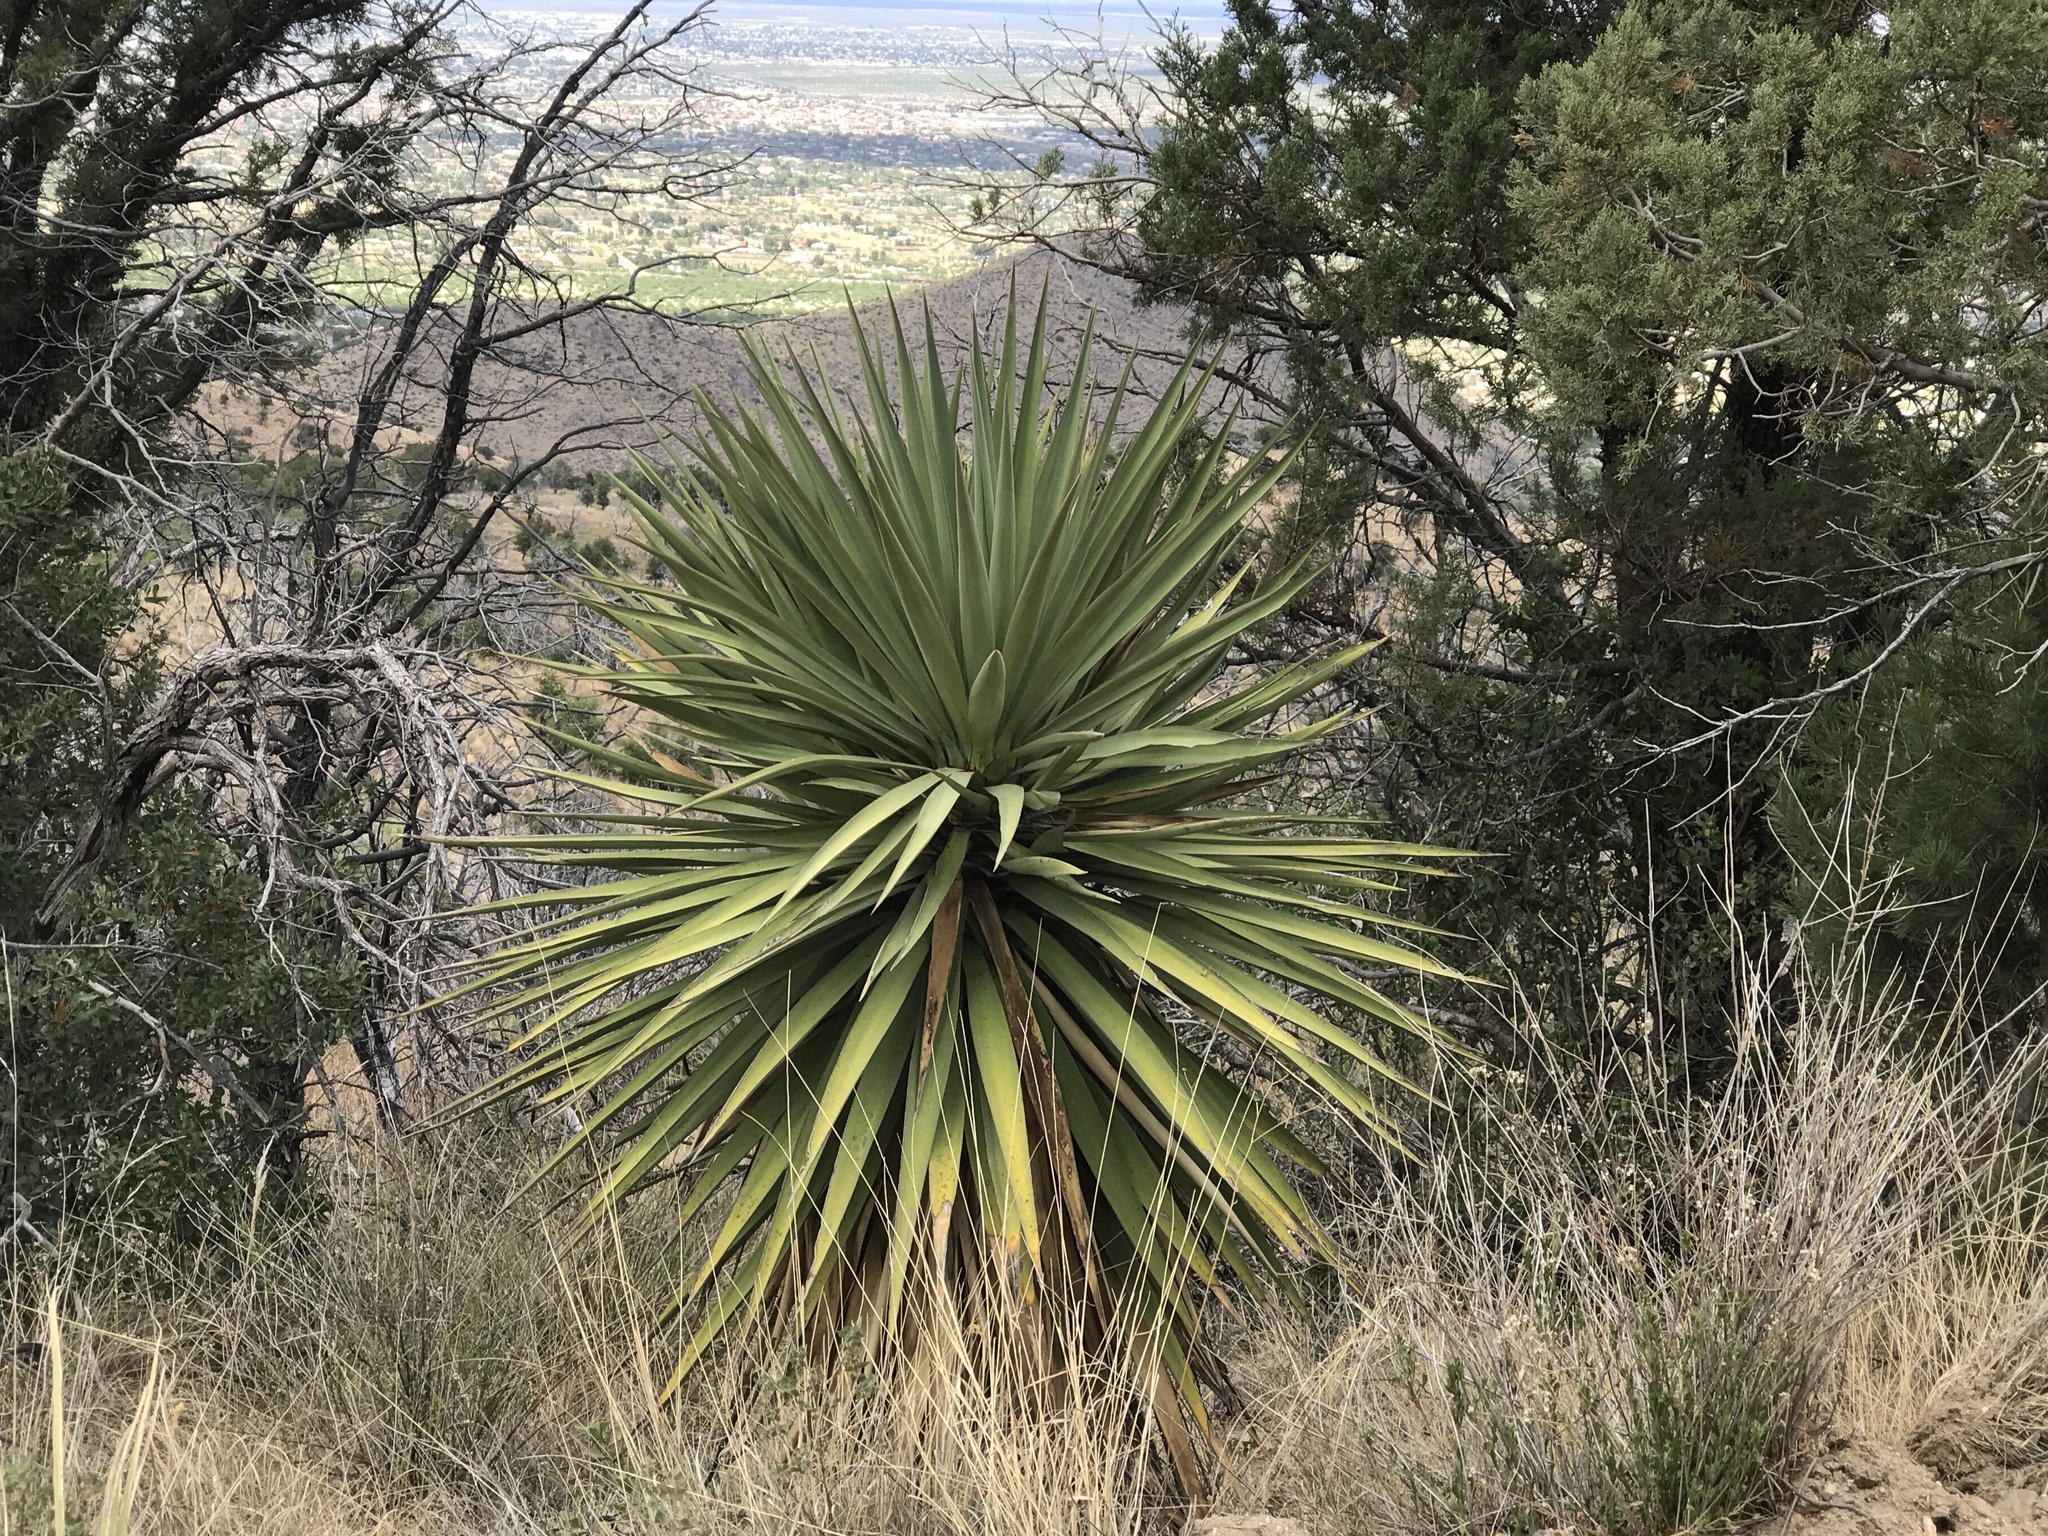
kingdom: Plantae
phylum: Tracheophyta
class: Liliopsida
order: Asparagales
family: Asparagaceae
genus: Yucca
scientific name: Yucca madrensis
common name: Hoary yucca
